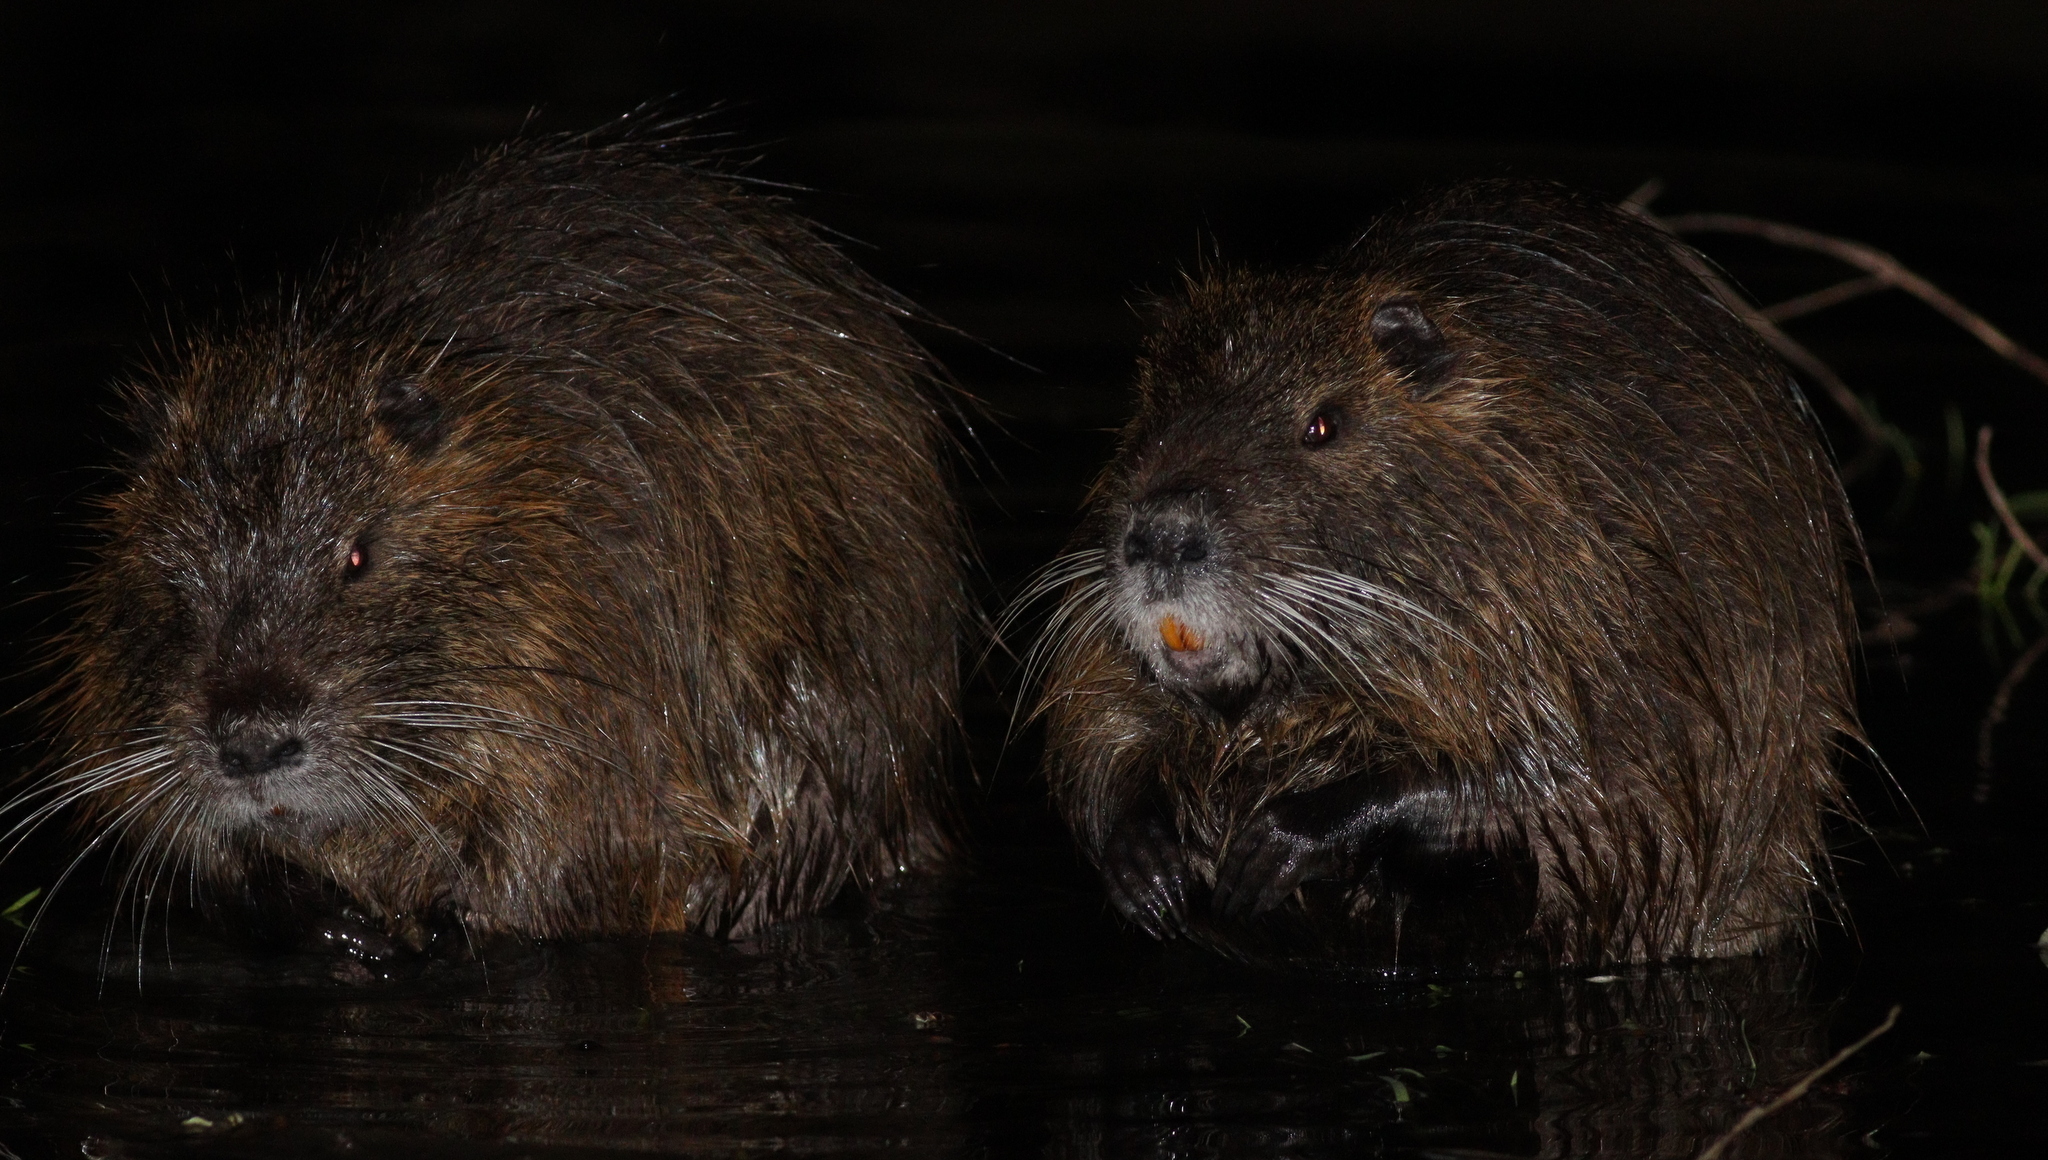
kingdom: Animalia
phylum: Chordata
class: Mammalia
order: Rodentia
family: Myocastoridae
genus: Myocastor
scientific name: Myocastor coypus
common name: Coypu
